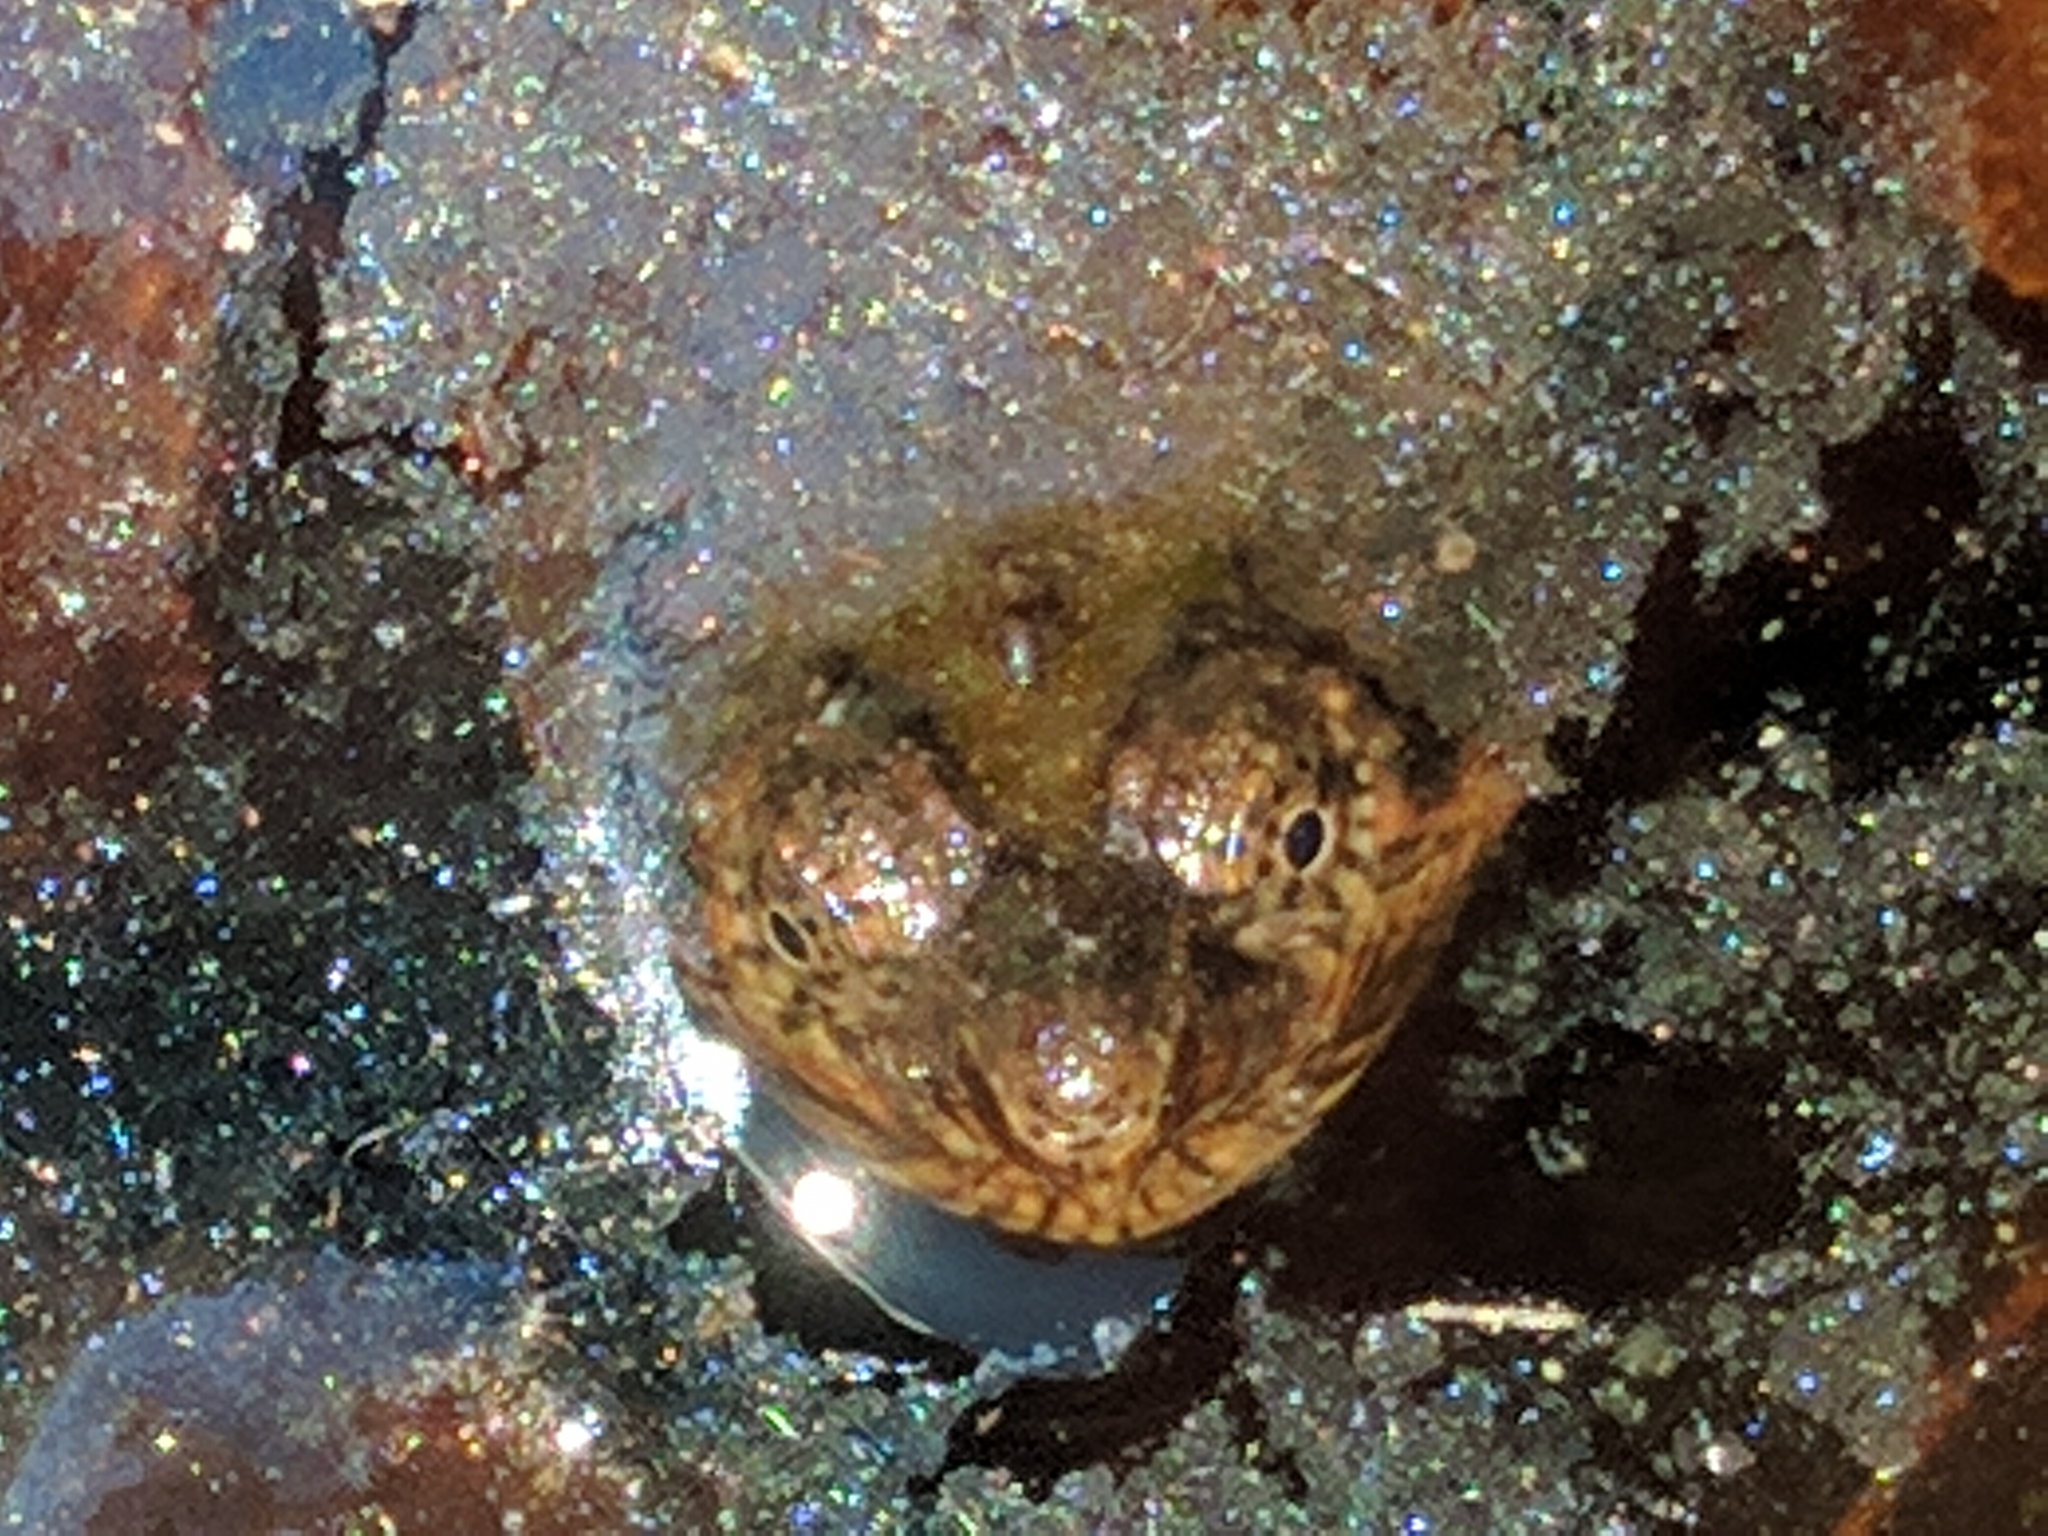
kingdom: Animalia
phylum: Chordata
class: Testudines
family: Chelydridae
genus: Chelydra
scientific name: Chelydra serpentina
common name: Common snapping turtle
